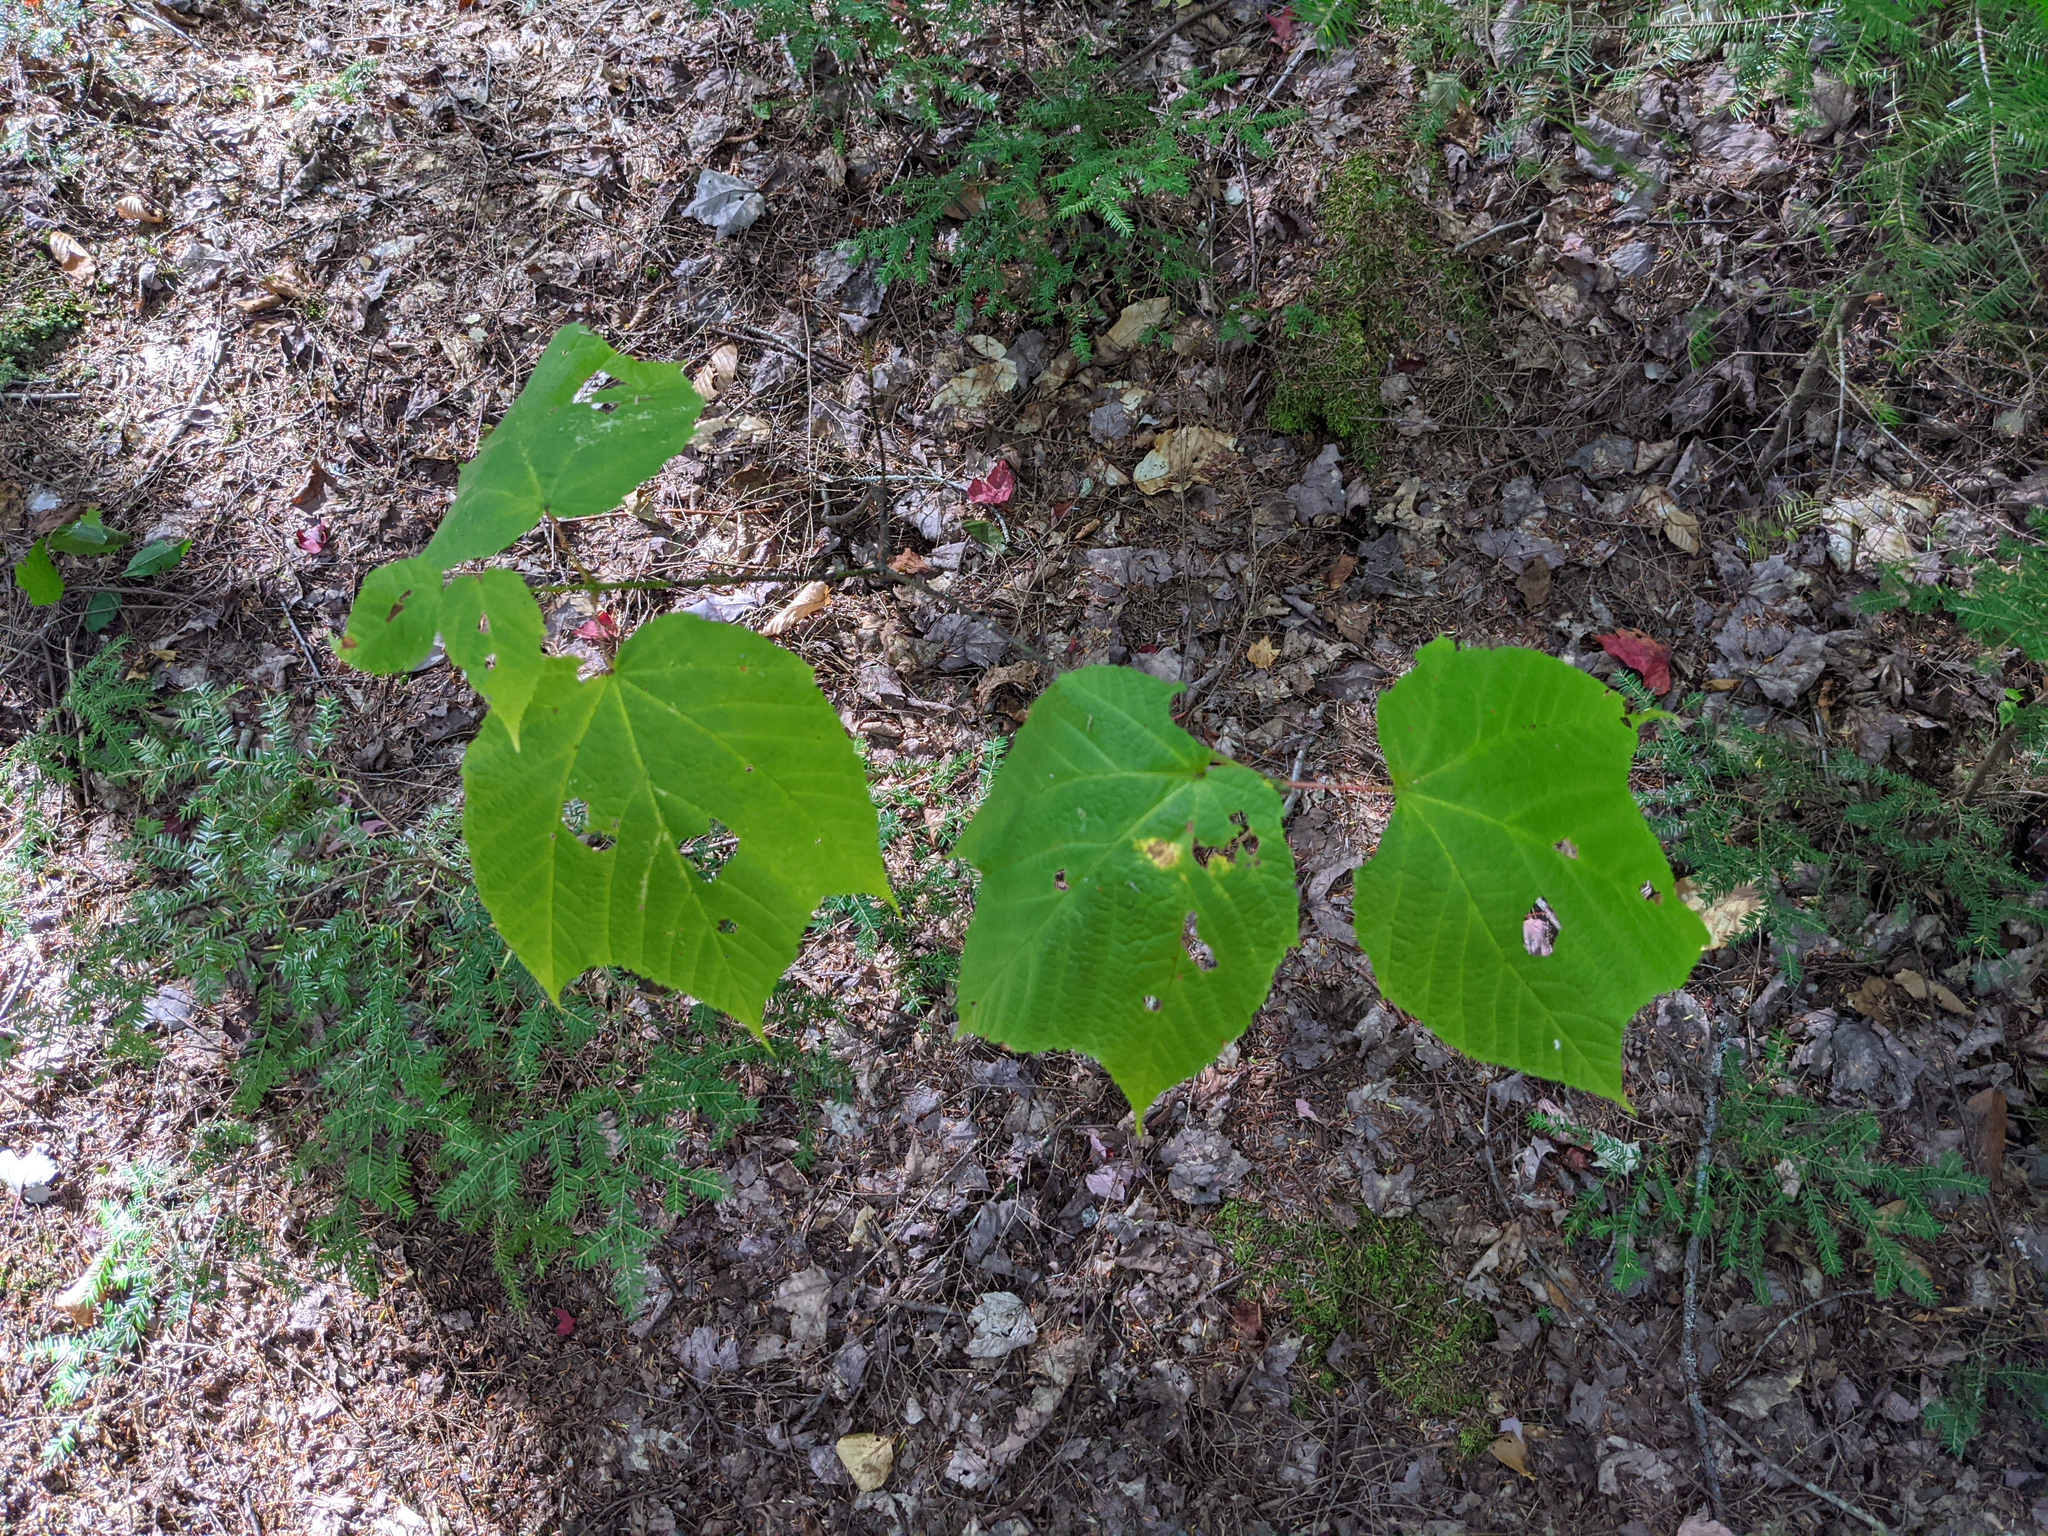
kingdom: Plantae
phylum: Tracheophyta
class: Magnoliopsida
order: Sapindales
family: Sapindaceae
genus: Acer
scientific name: Acer pensylvanicum
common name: Moosewood
